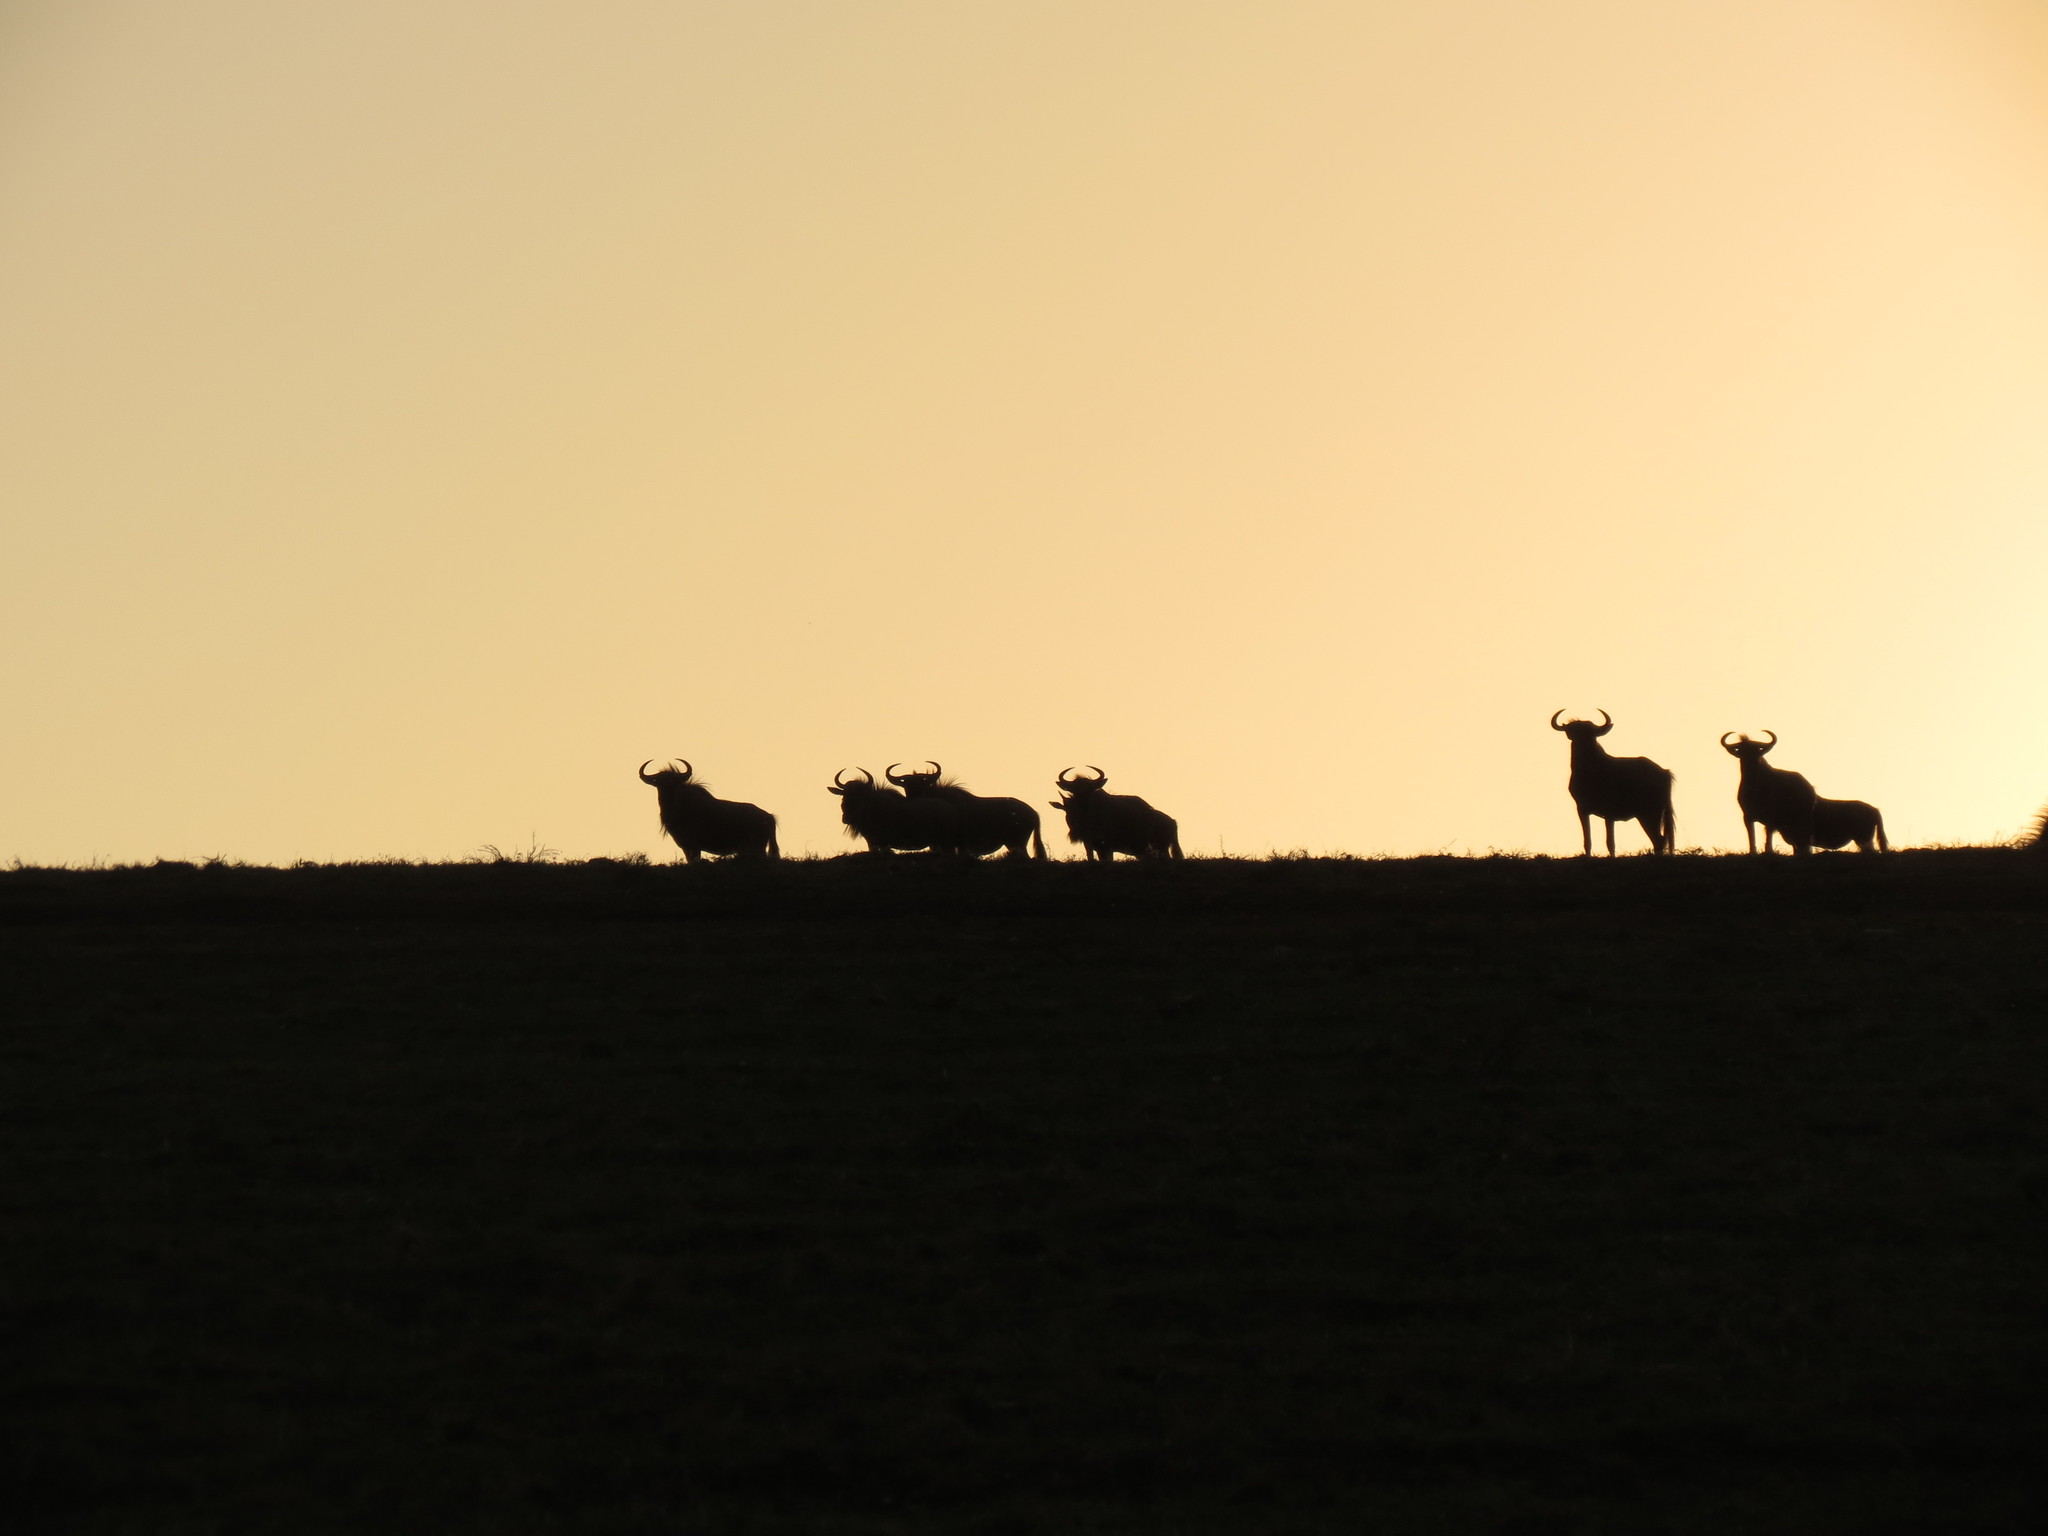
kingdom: Animalia
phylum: Chordata
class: Mammalia
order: Artiodactyla
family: Bovidae
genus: Connochaetes
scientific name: Connochaetes taurinus
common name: Blue wildebeest
